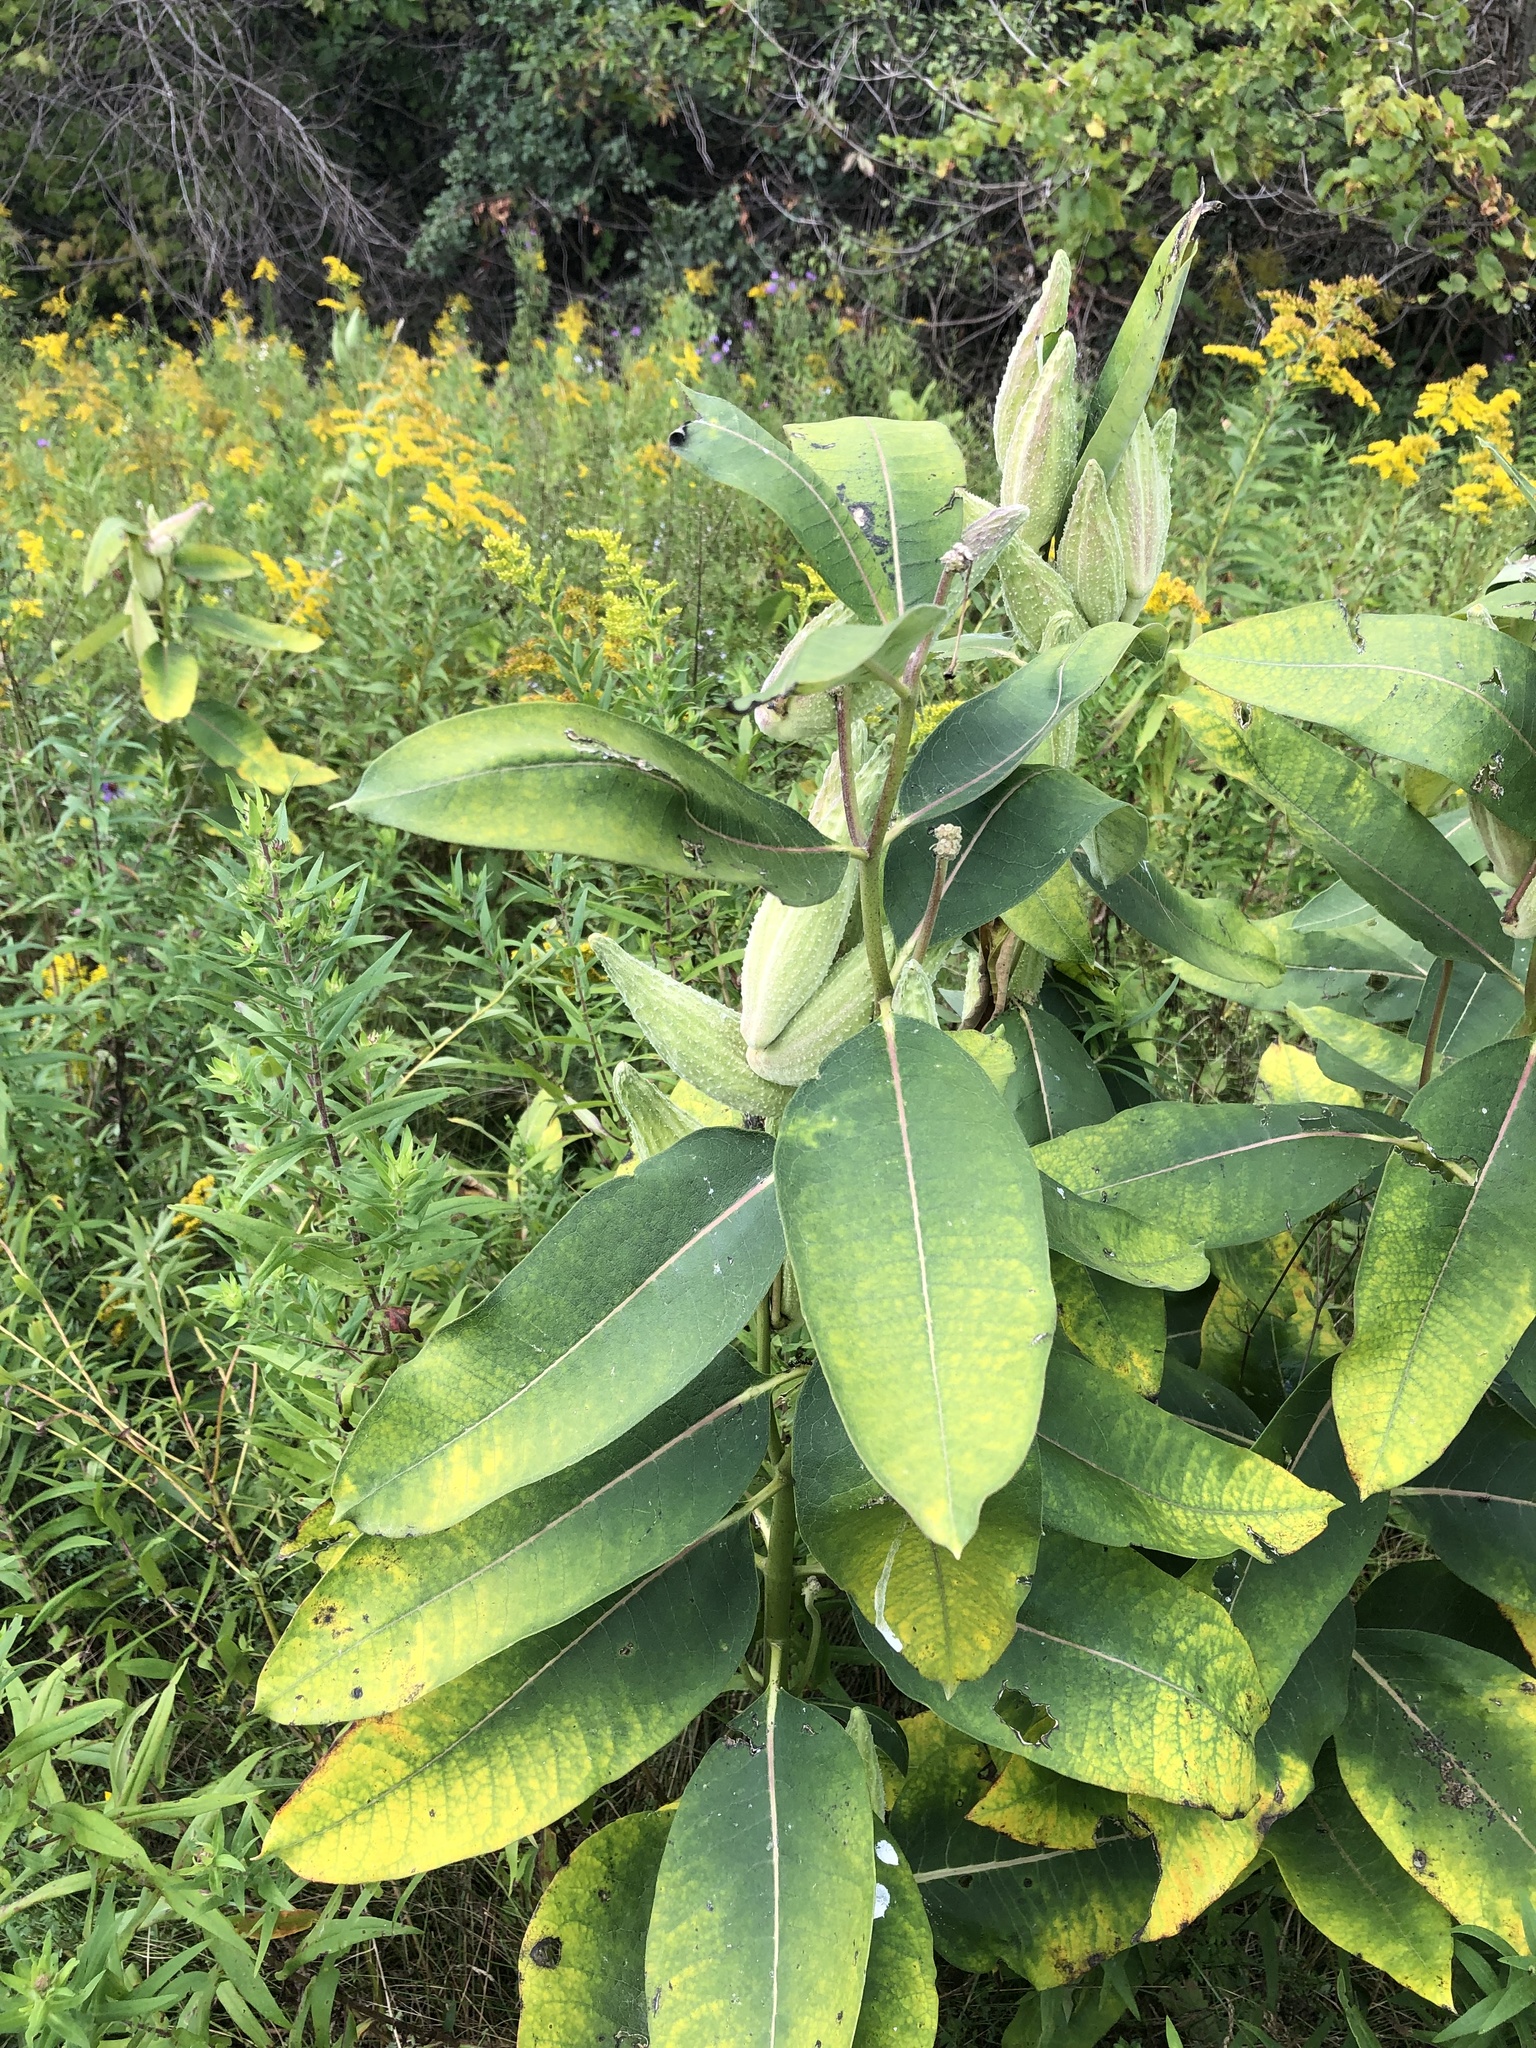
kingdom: Plantae
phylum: Tracheophyta
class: Magnoliopsida
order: Gentianales
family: Apocynaceae
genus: Asclepias
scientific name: Asclepias syriaca
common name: Common milkweed
